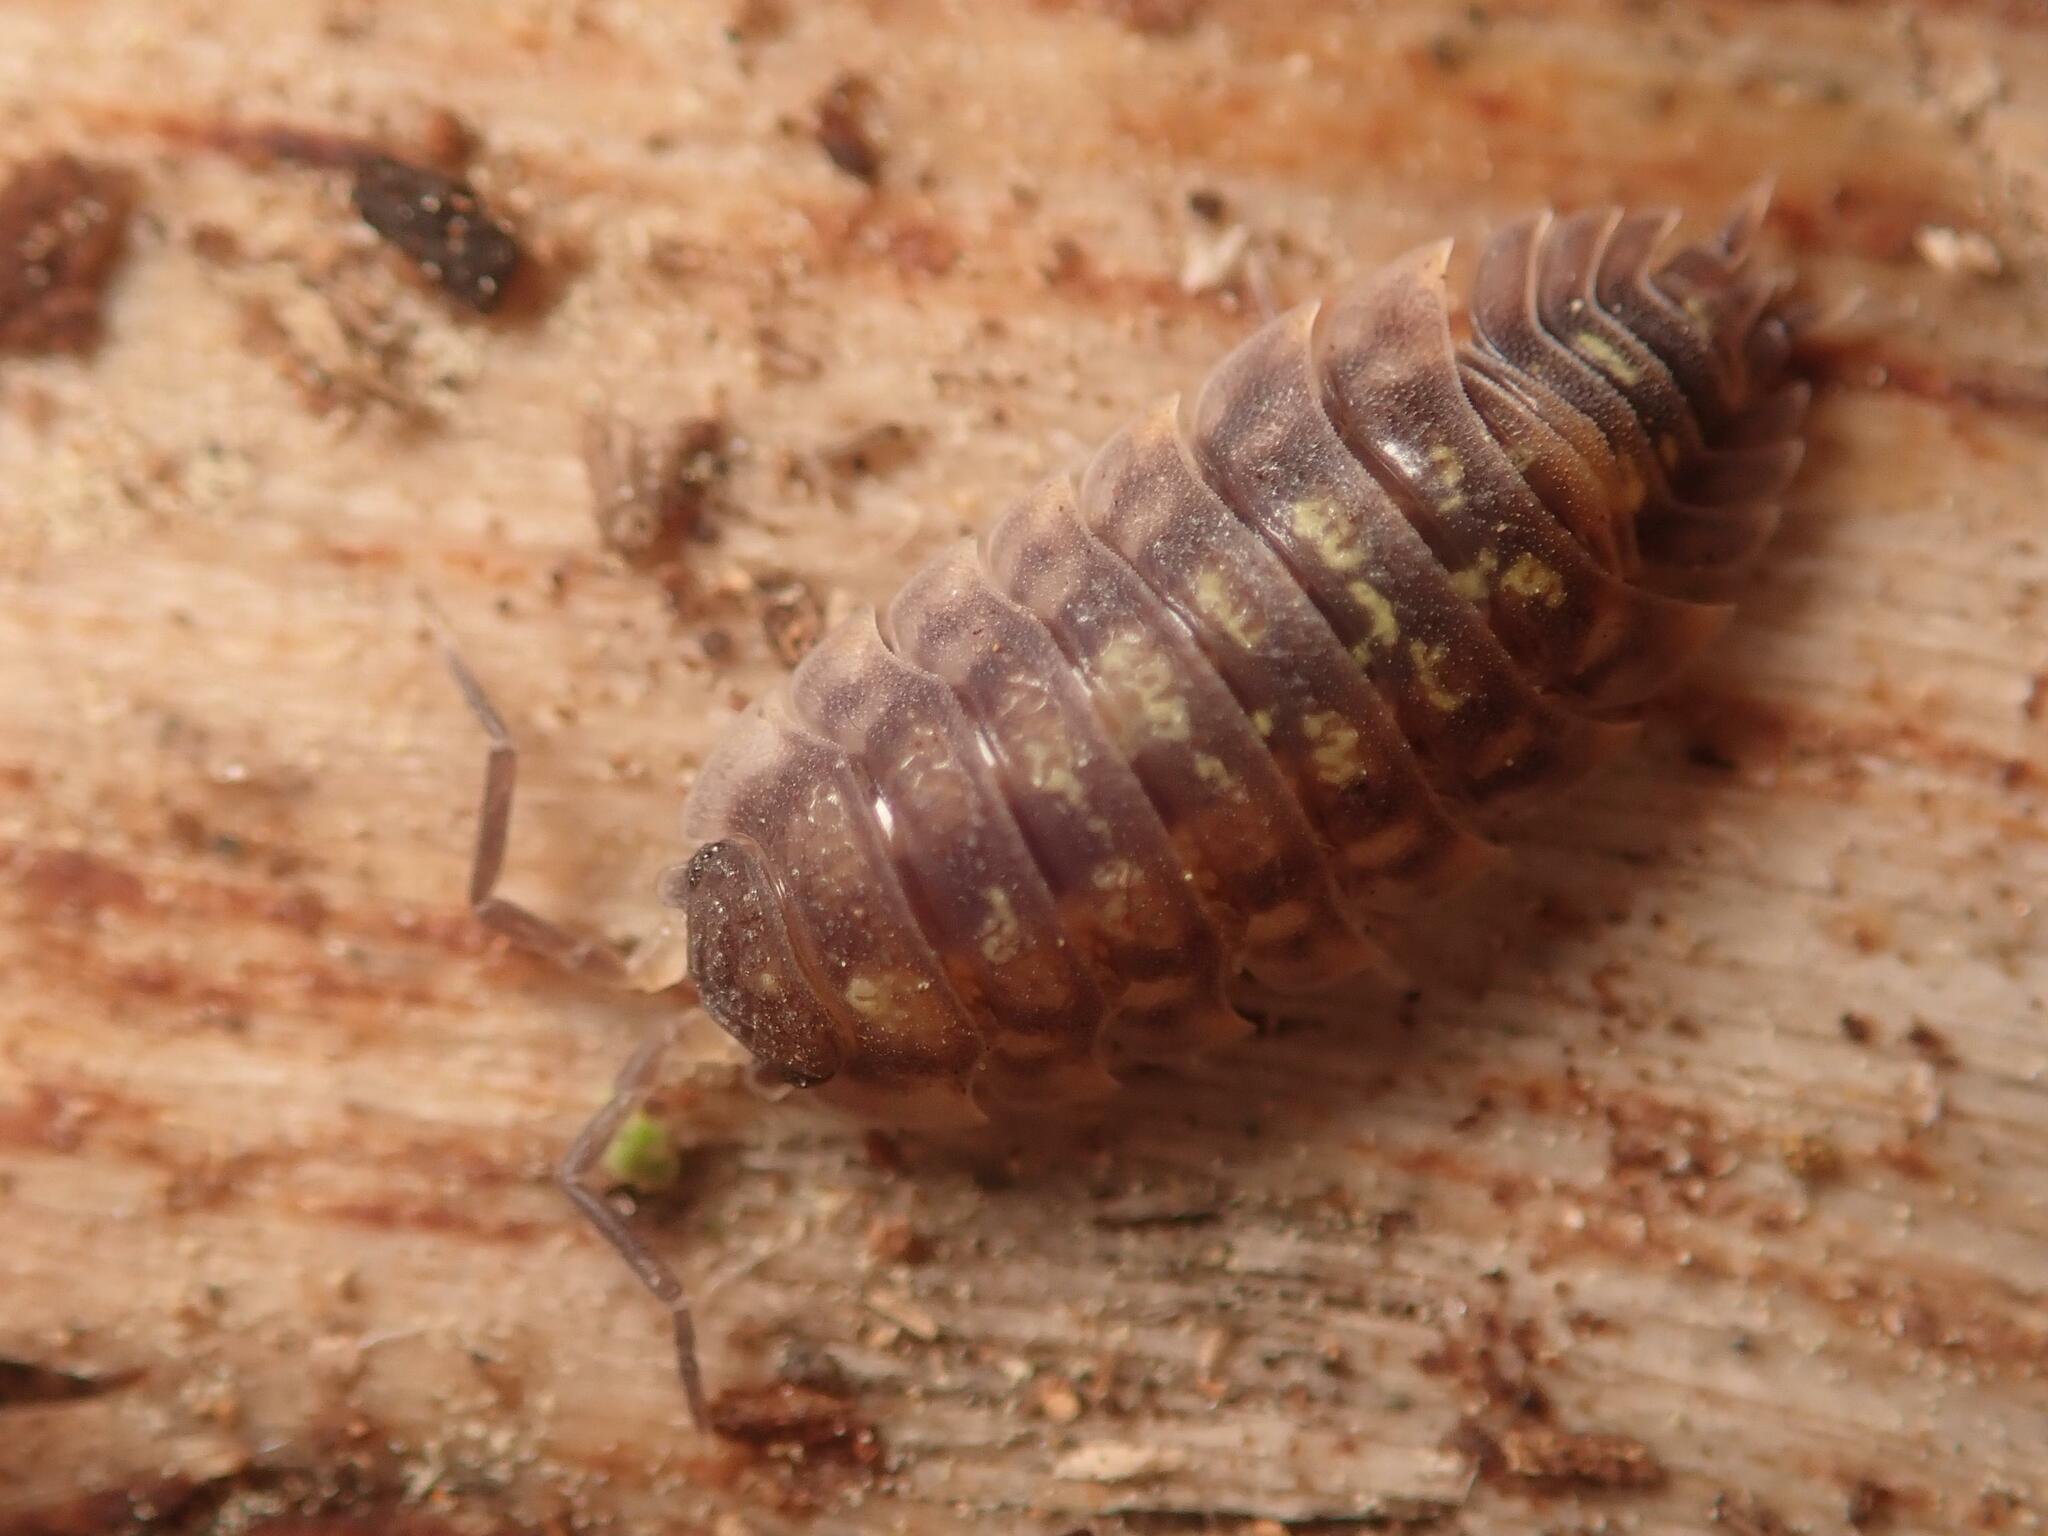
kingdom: Animalia
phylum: Arthropoda
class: Malacostraca
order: Isopoda
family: Oniscidae
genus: Oniscus
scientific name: Oniscus asellus
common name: Common shiny woodlouse
